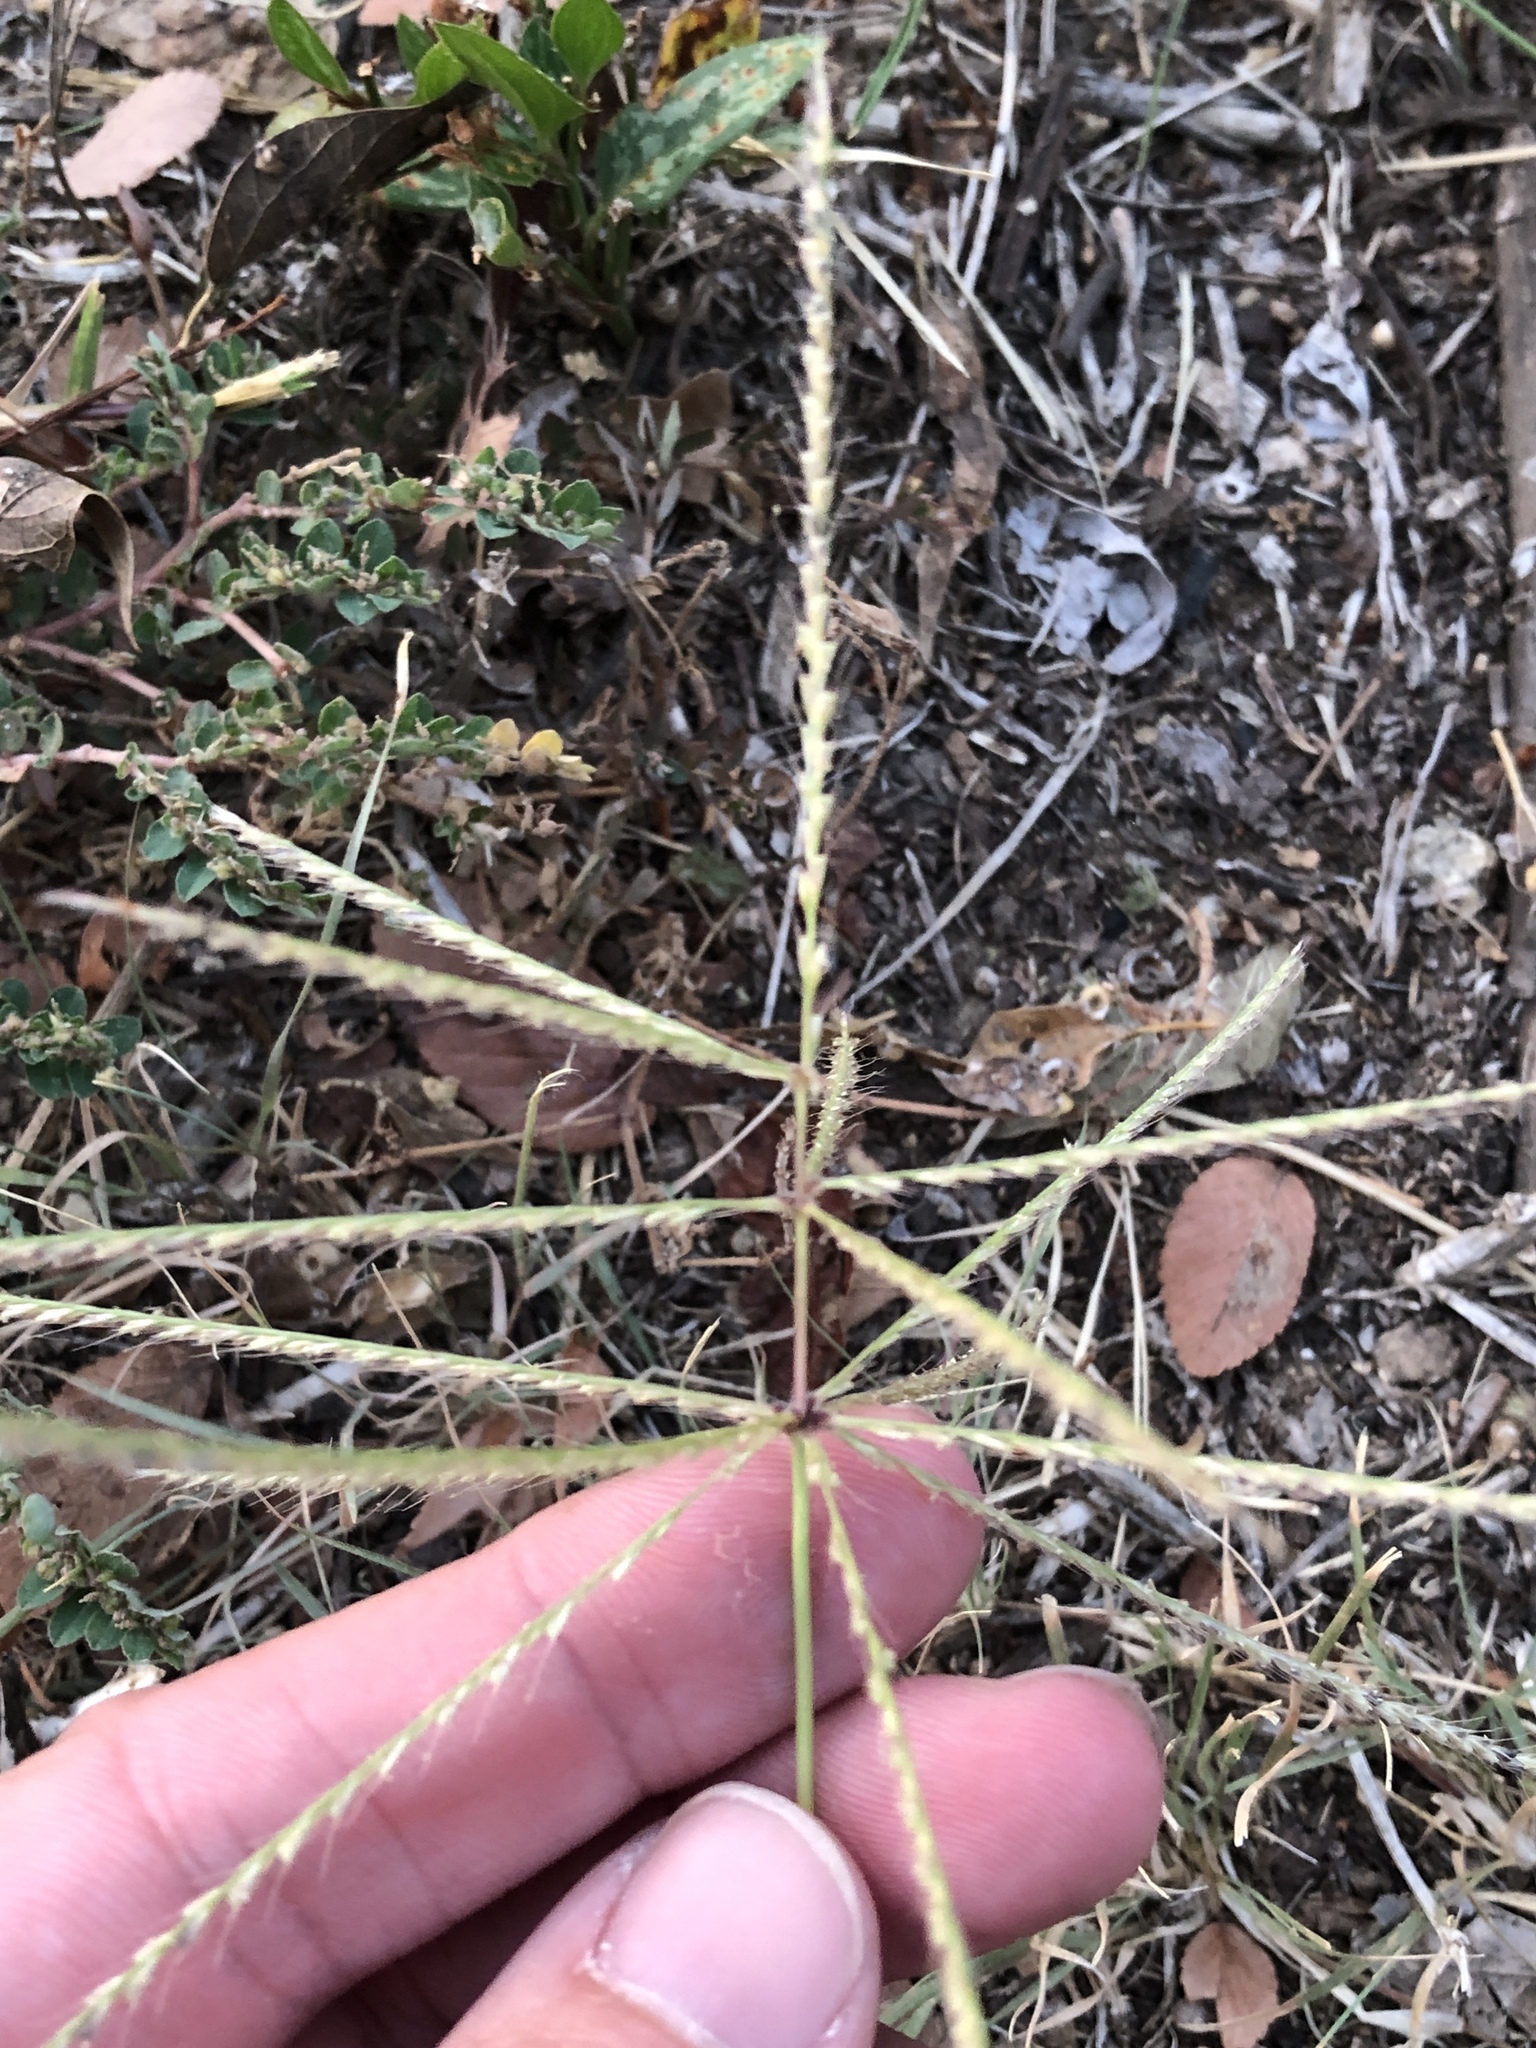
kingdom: Plantae
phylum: Tracheophyta
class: Liliopsida
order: Poales
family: Poaceae
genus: Chloris
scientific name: Chloris verticillata
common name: Tumble windmill grass
